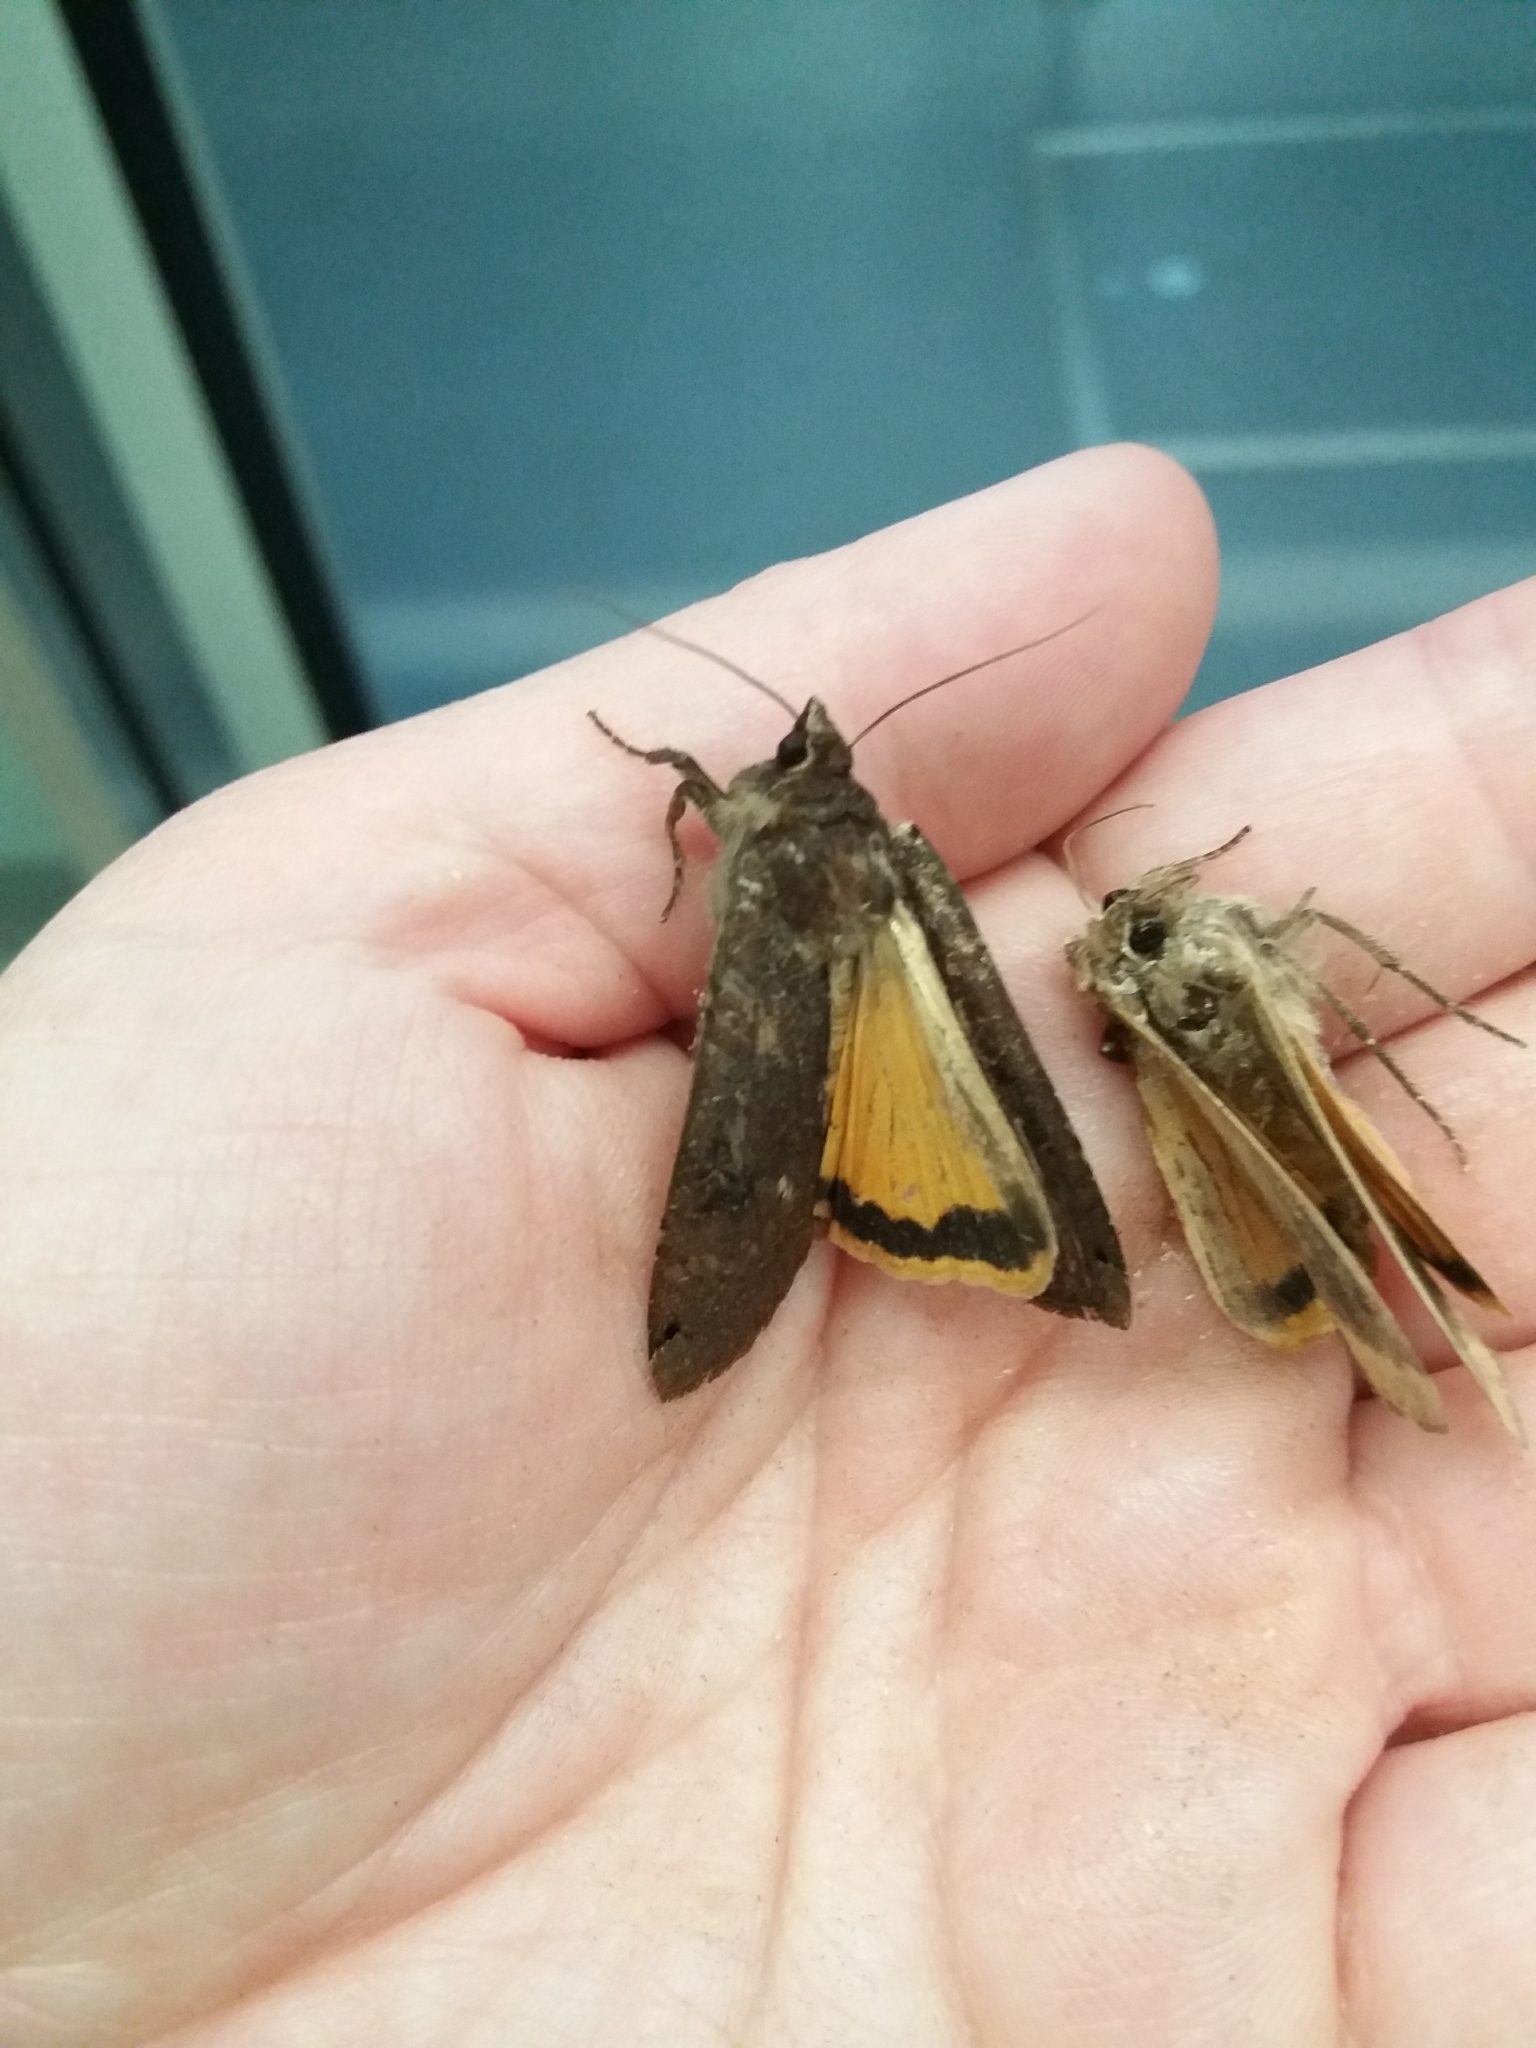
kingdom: Animalia
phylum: Arthropoda
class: Insecta
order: Lepidoptera
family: Noctuidae
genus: Noctua
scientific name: Noctua pronuba
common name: Large yellow underwing
